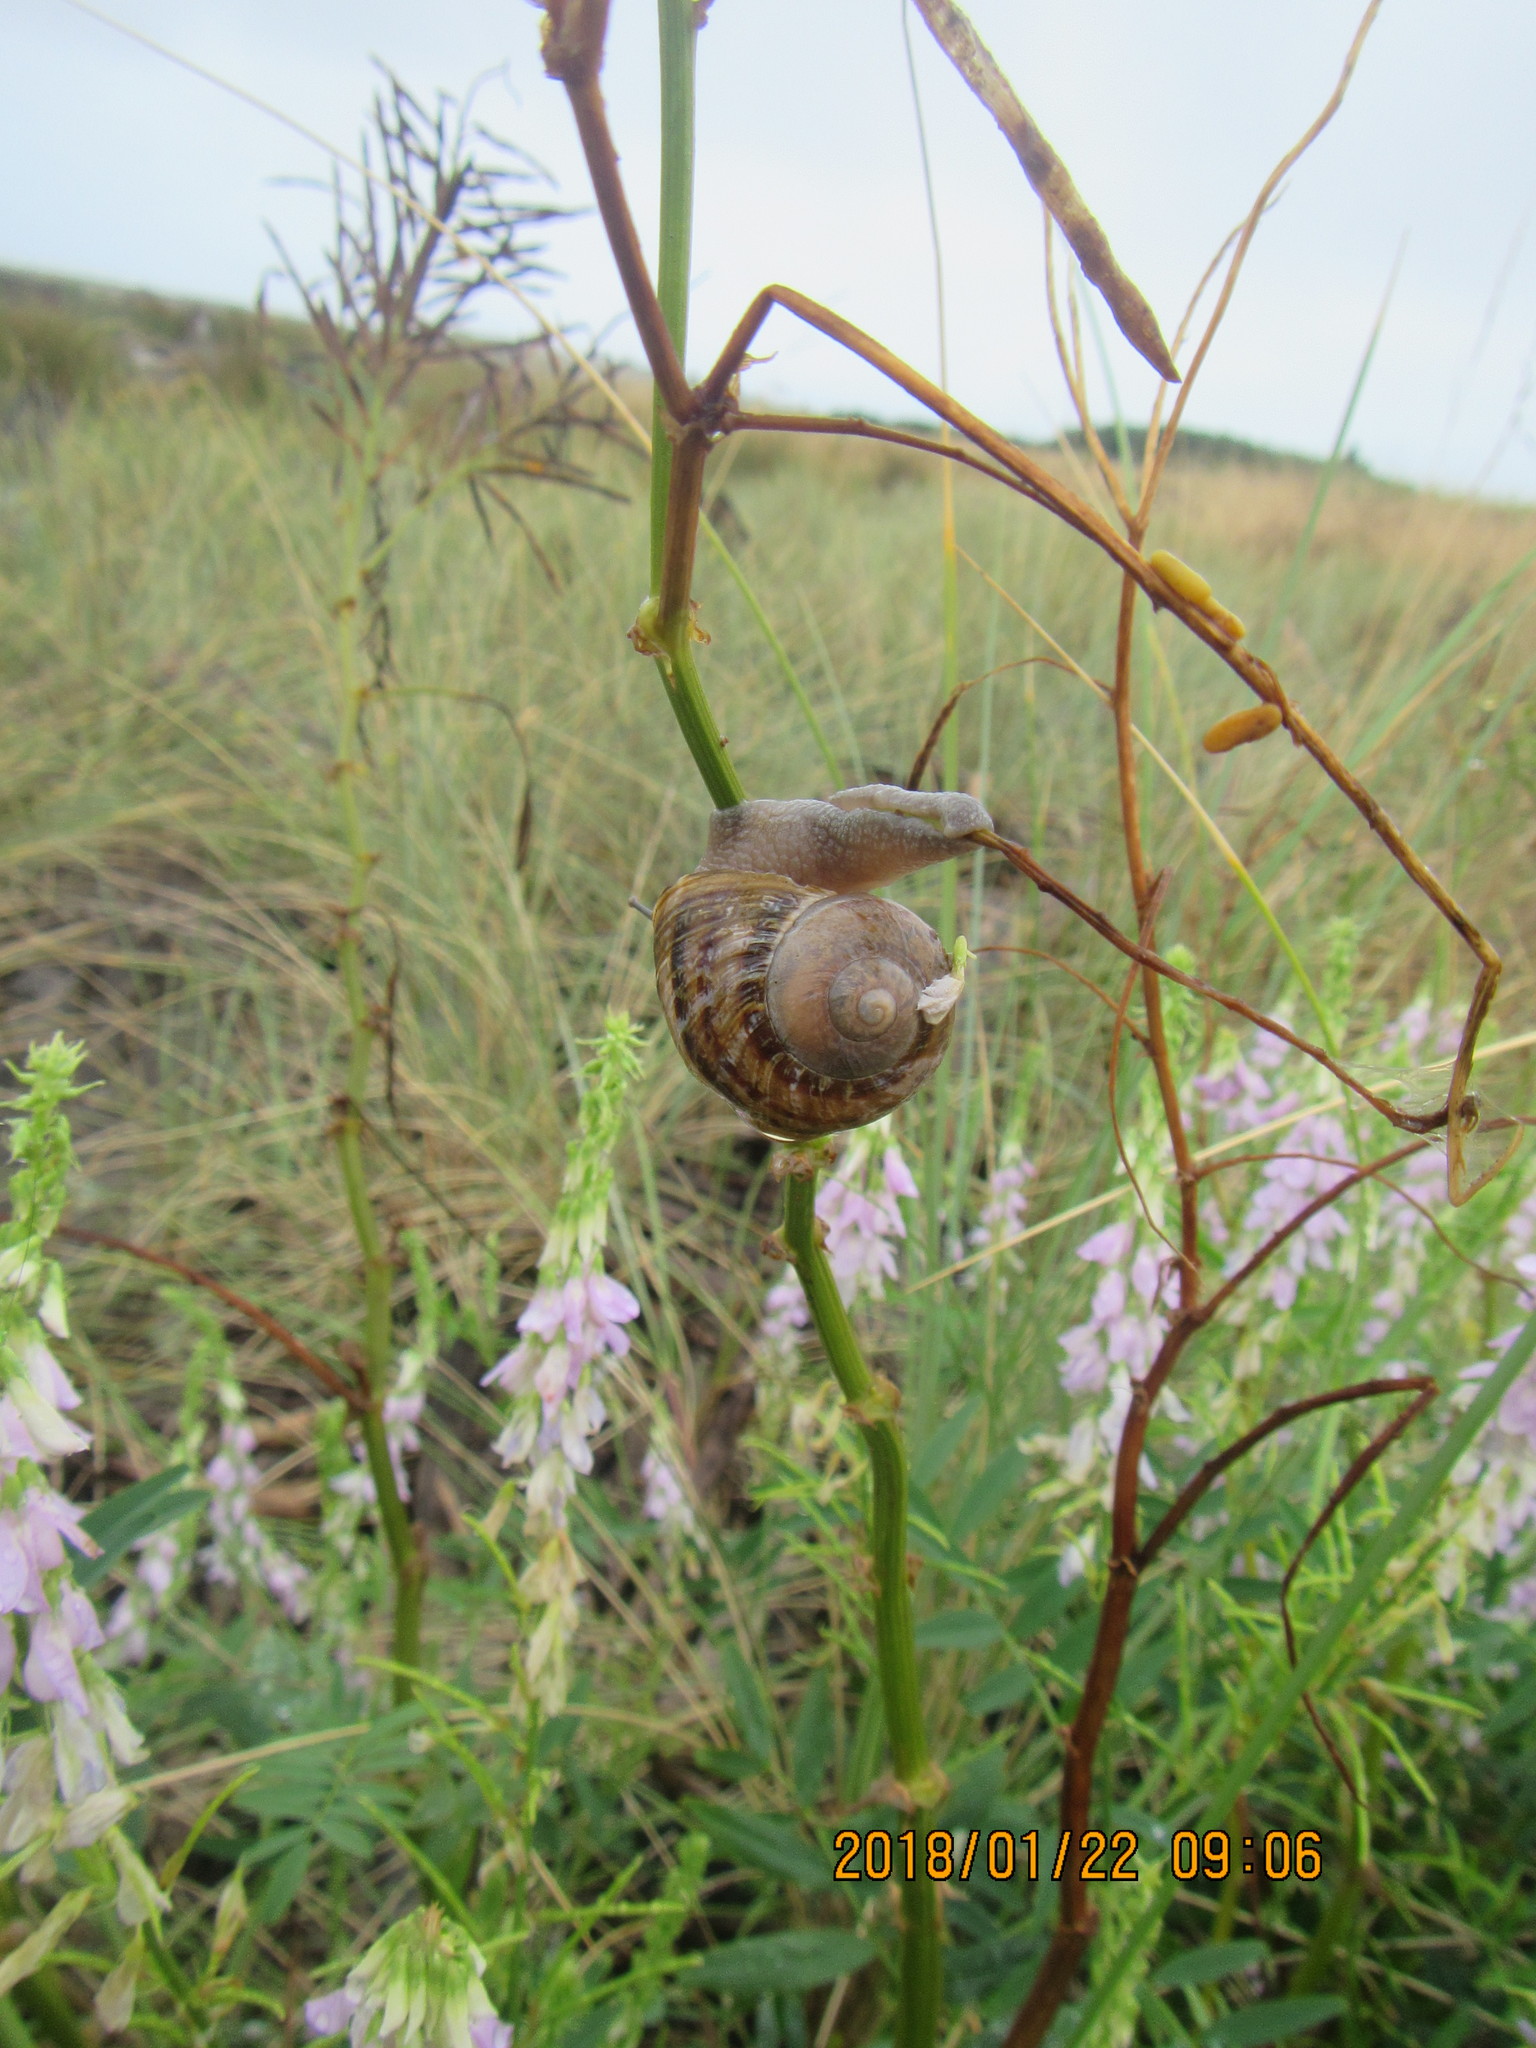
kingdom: Animalia
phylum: Mollusca
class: Gastropoda
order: Stylommatophora
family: Helicidae
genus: Cornu
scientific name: Cornu aspersum
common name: Brown garden snail
